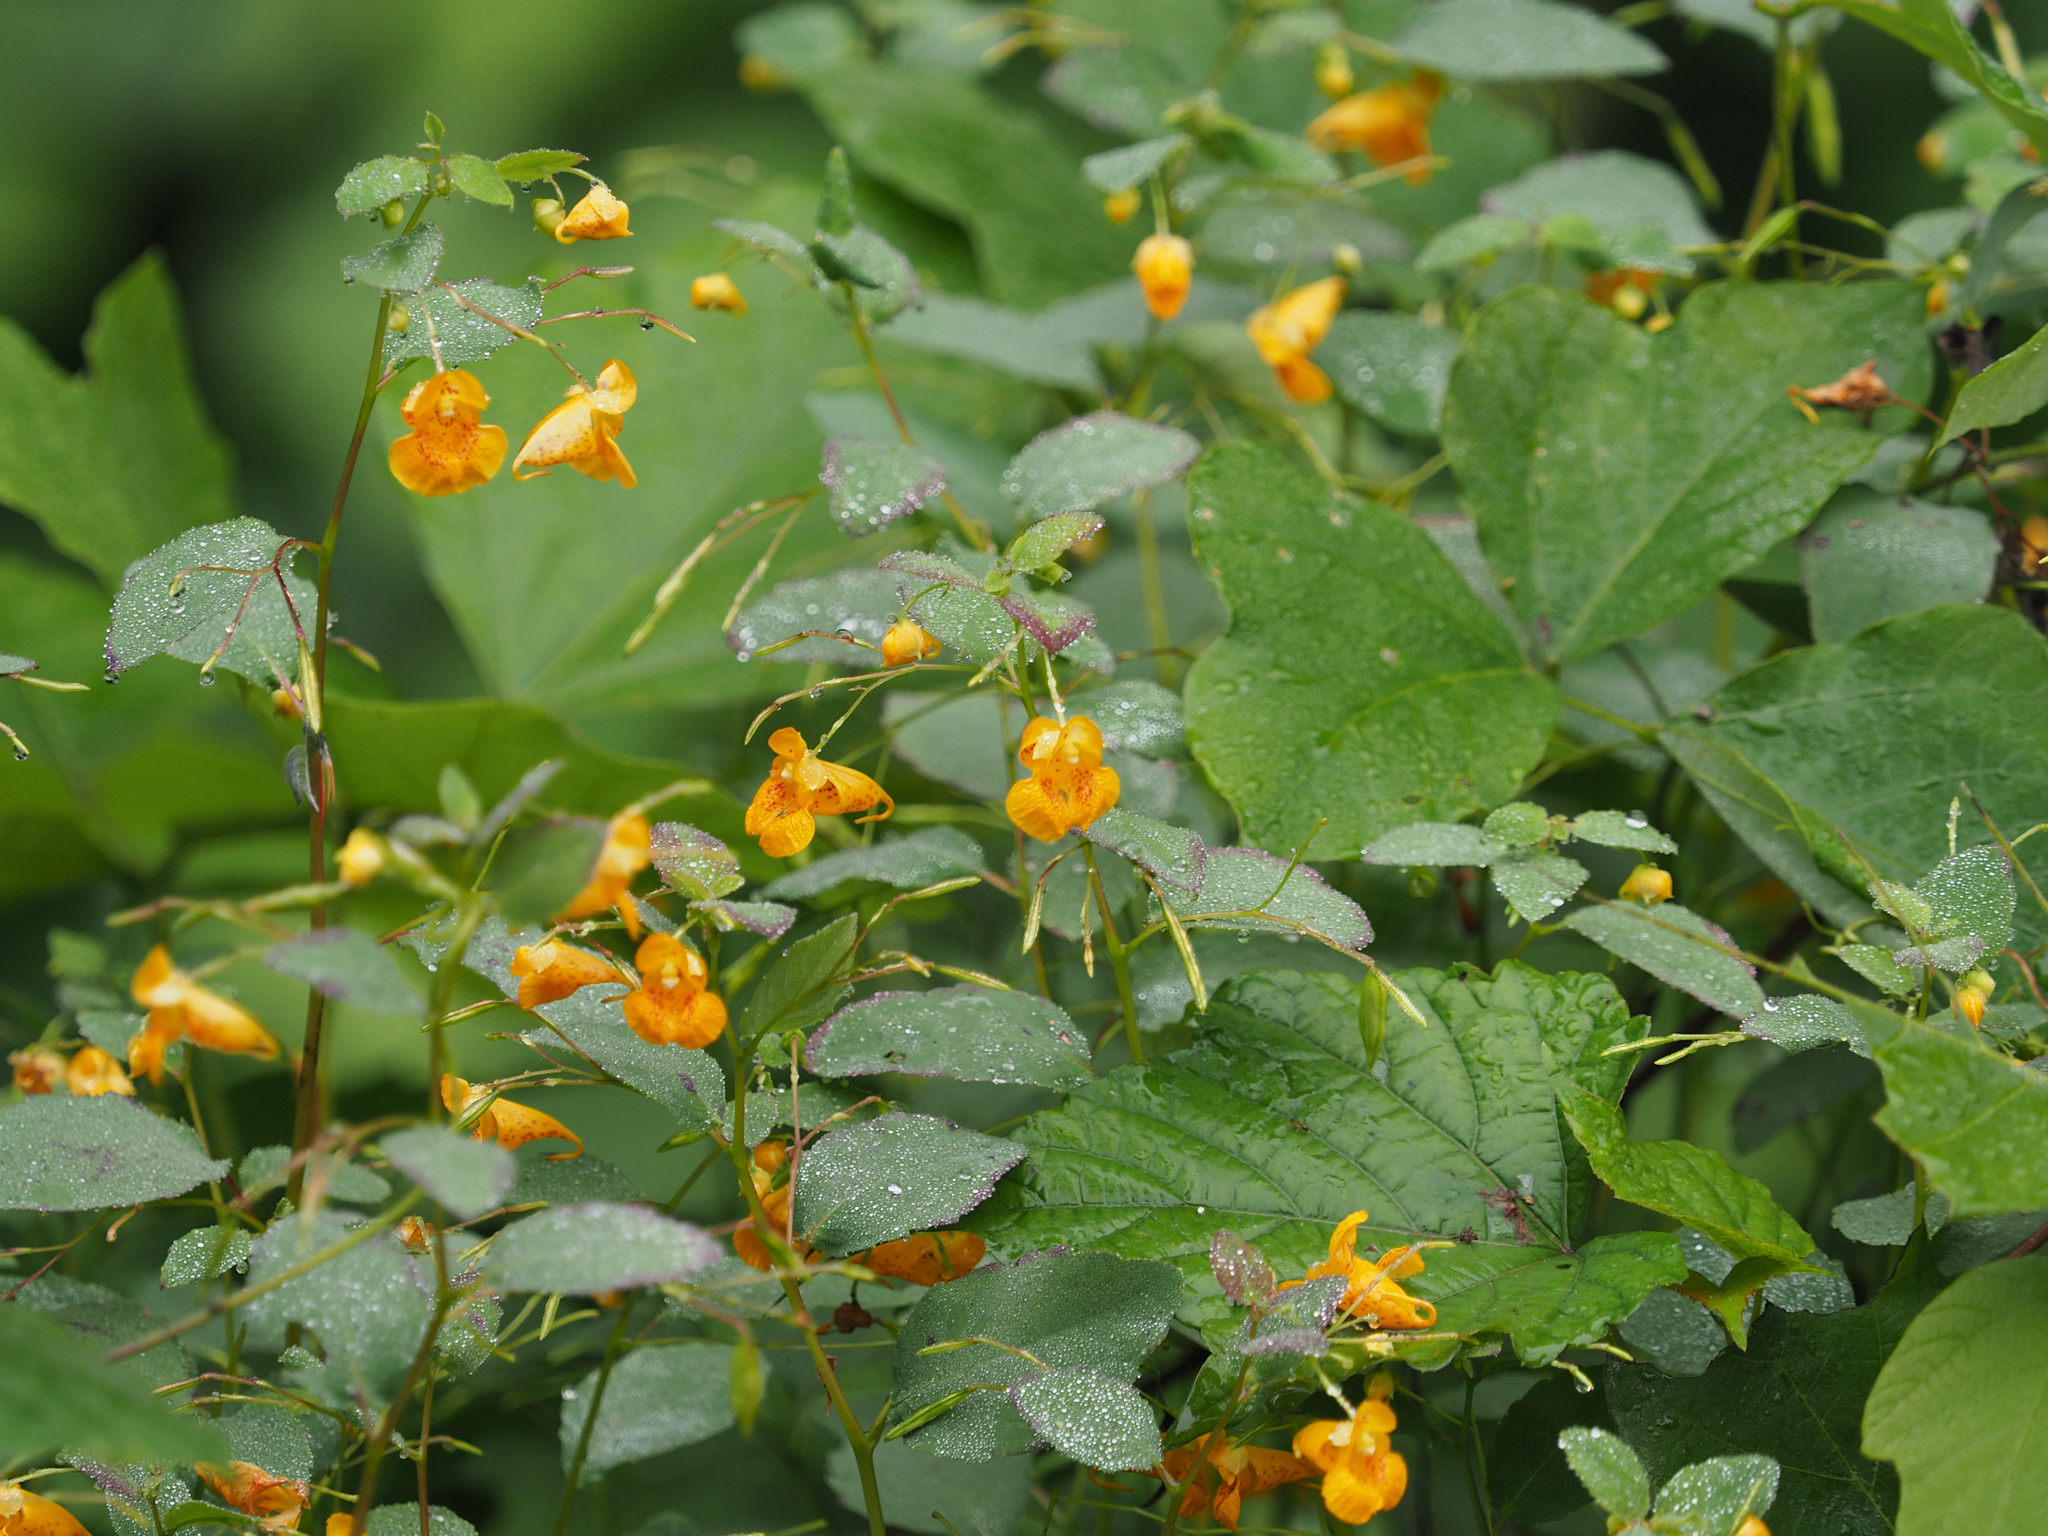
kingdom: Plantae
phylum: Tracheophyta
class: Magnoliopsida
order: Ericales
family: Balsaminaceae
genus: Impatiens
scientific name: Impatiens capensis
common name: Orange balsam
